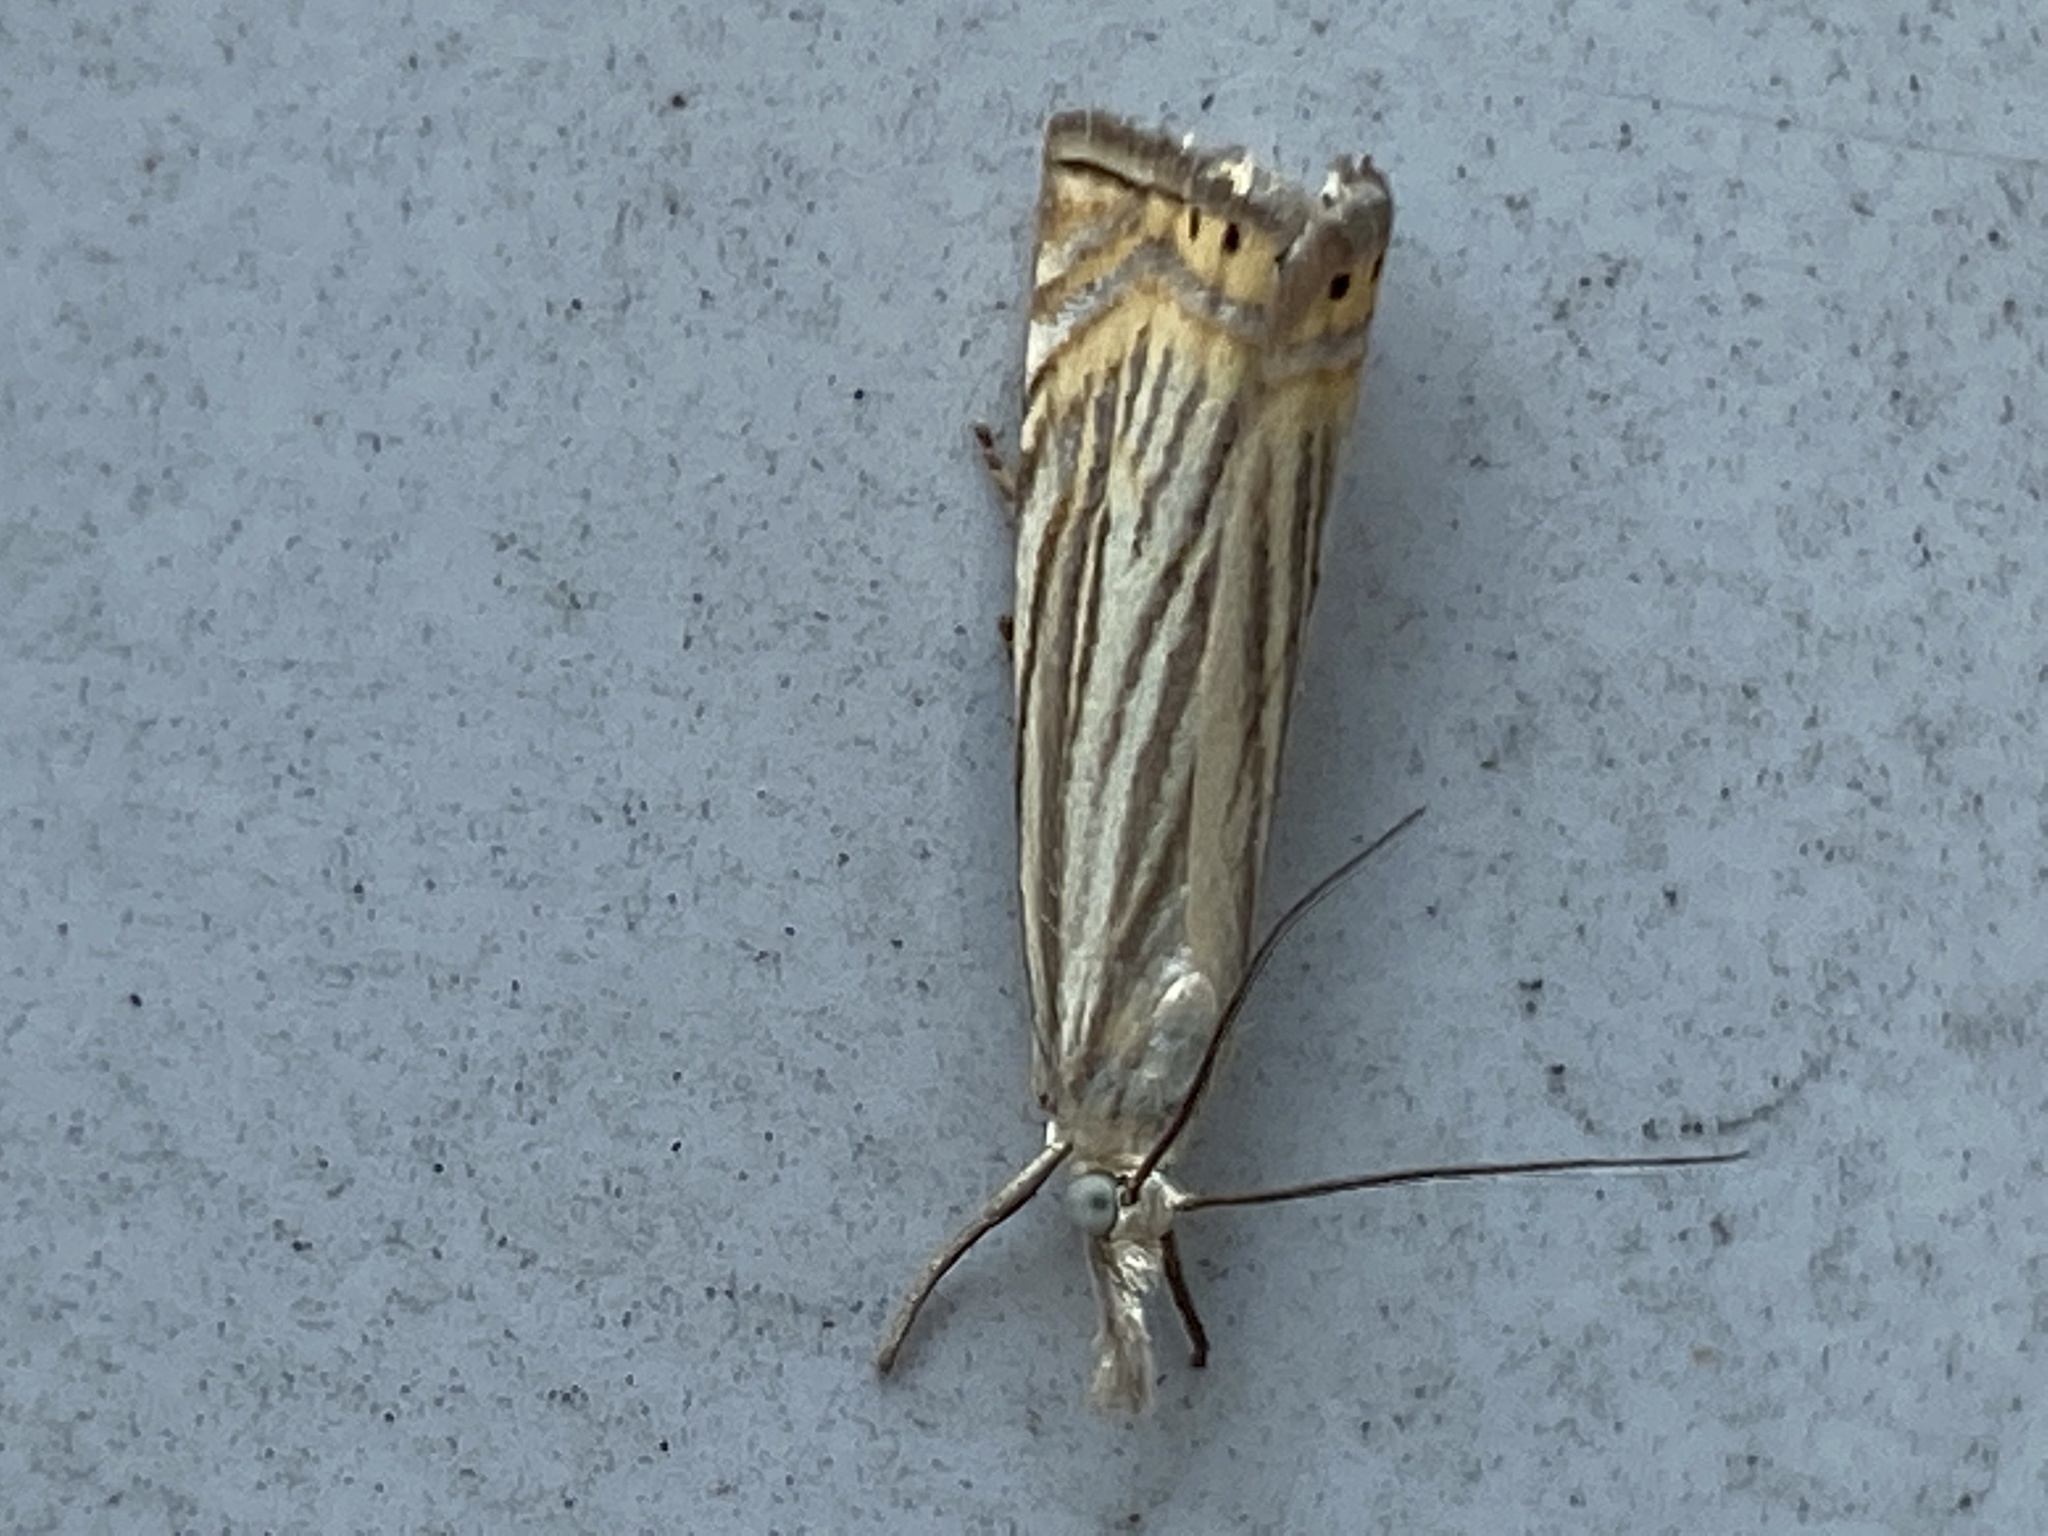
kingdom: Animalia
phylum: Arthropoda
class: Insecta
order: Lepidoptera
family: Crambidae
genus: Chrysoteuchia
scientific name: Chrysoteuchia topiarius
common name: Topiary grass-veneer
